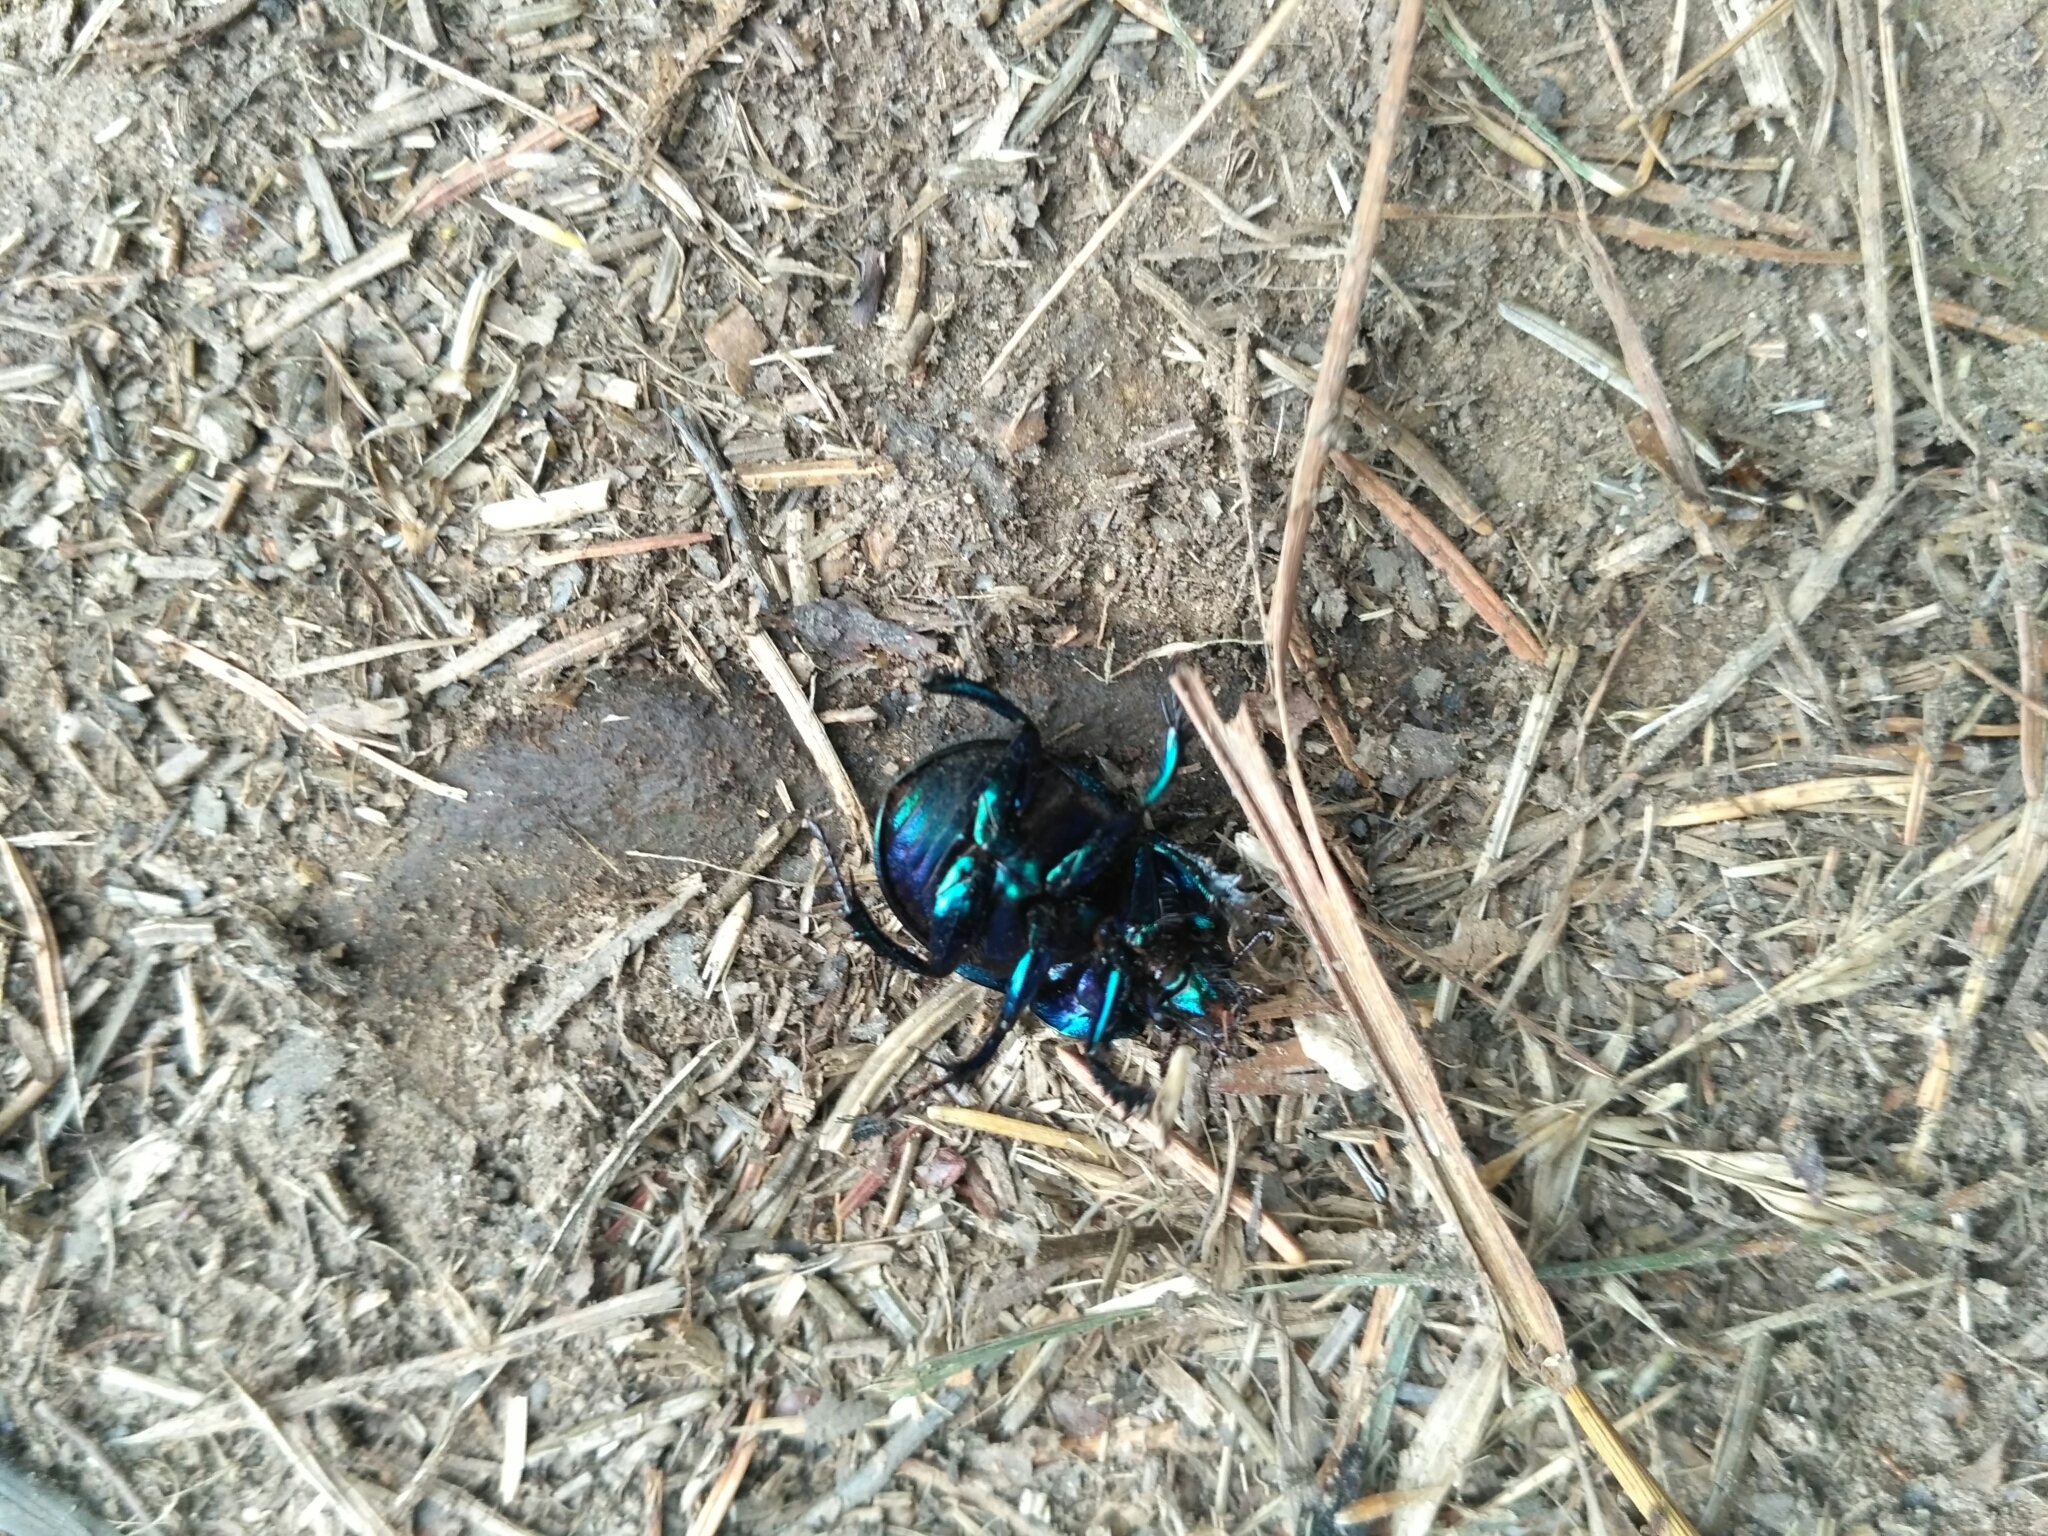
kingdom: Animalia
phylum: Arthropoda
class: Insecta
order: Coleoptera
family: Geotrupidae
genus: Anoplotrupes
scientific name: Anoplotrupes stercorosus
